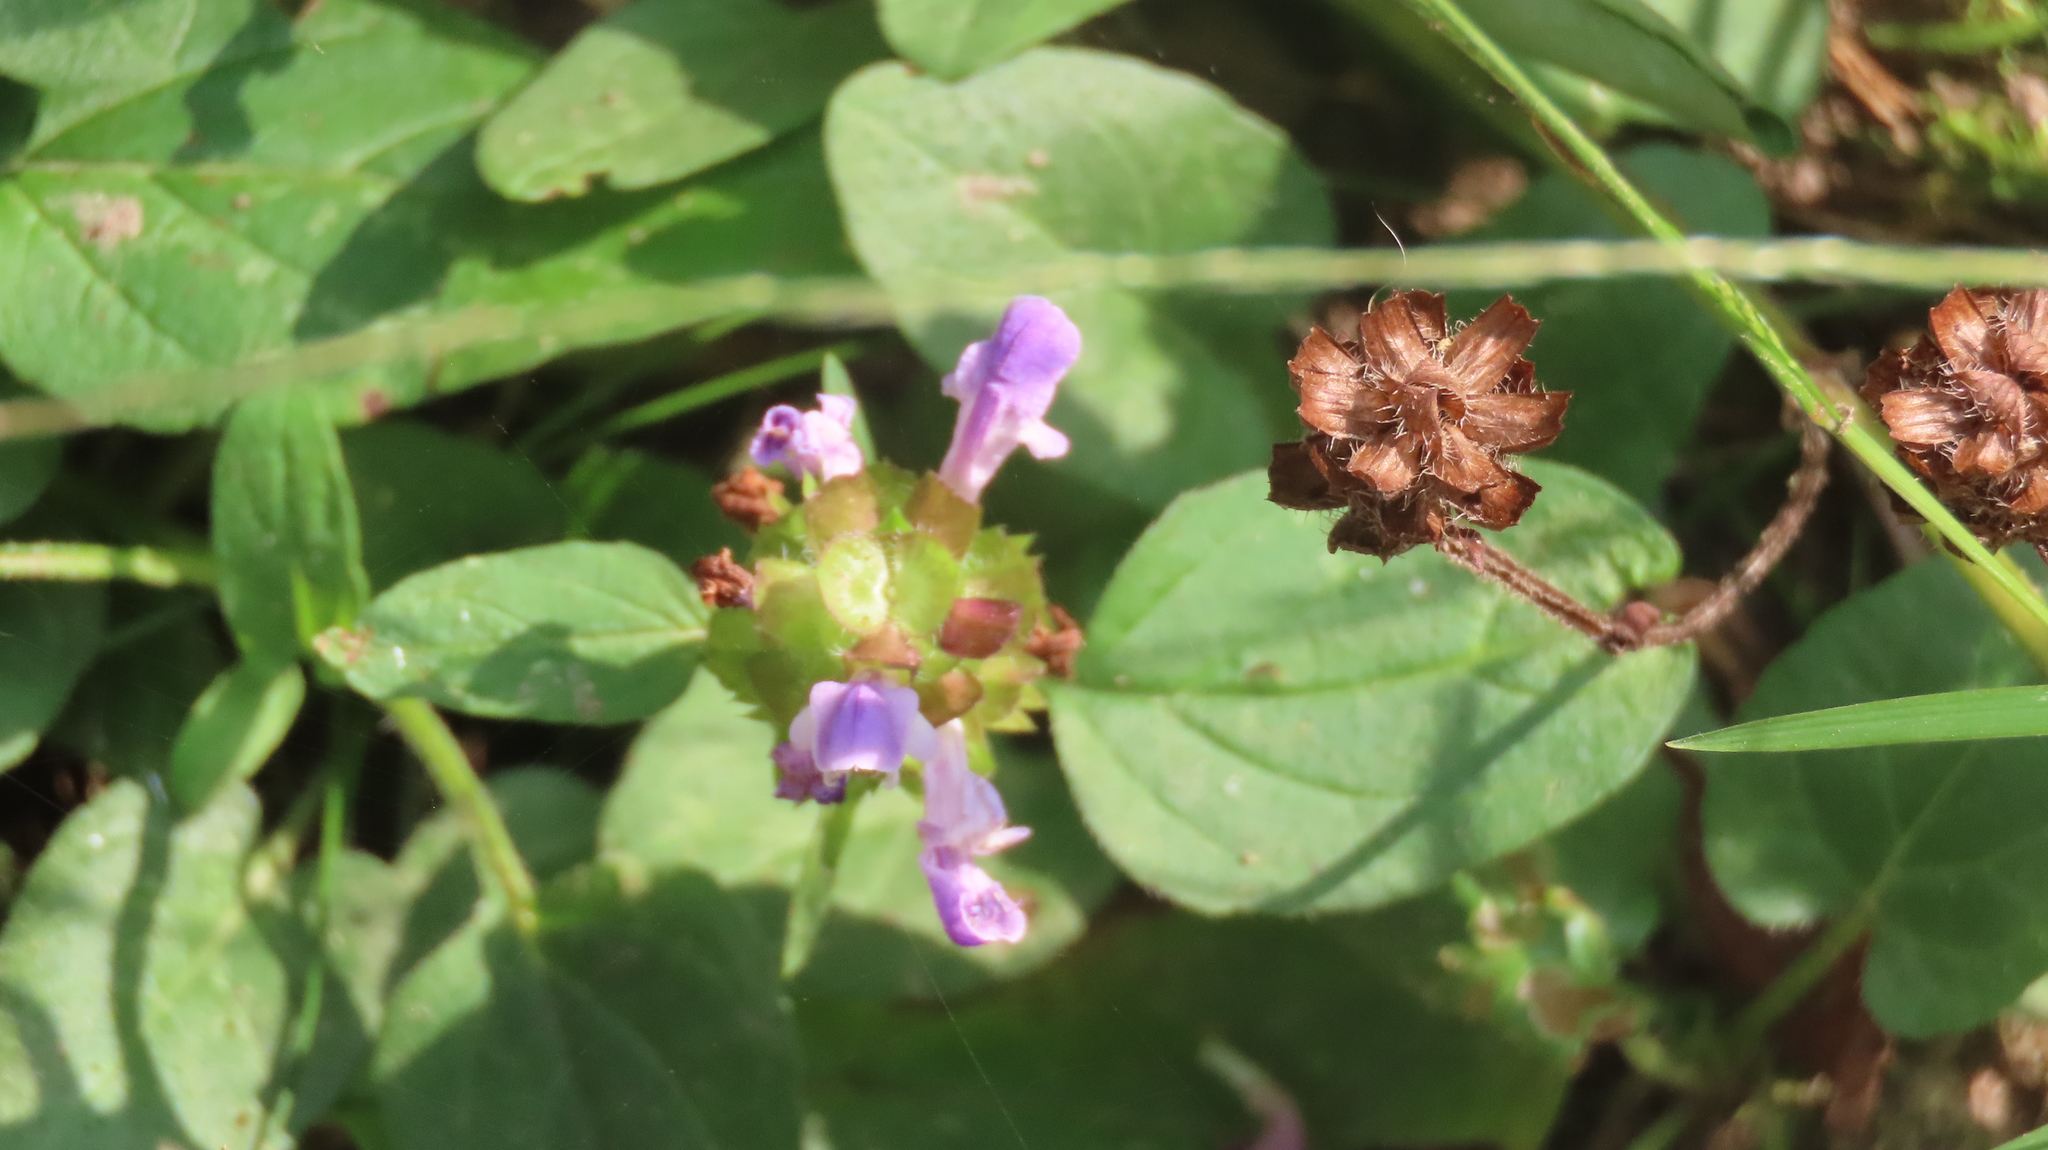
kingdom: Plantae
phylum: Tracheophyta
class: Magnoliopsida
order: Lamiales
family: Lamiaceae
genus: Prunella
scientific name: Prunella vulgaris
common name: Heal-all
